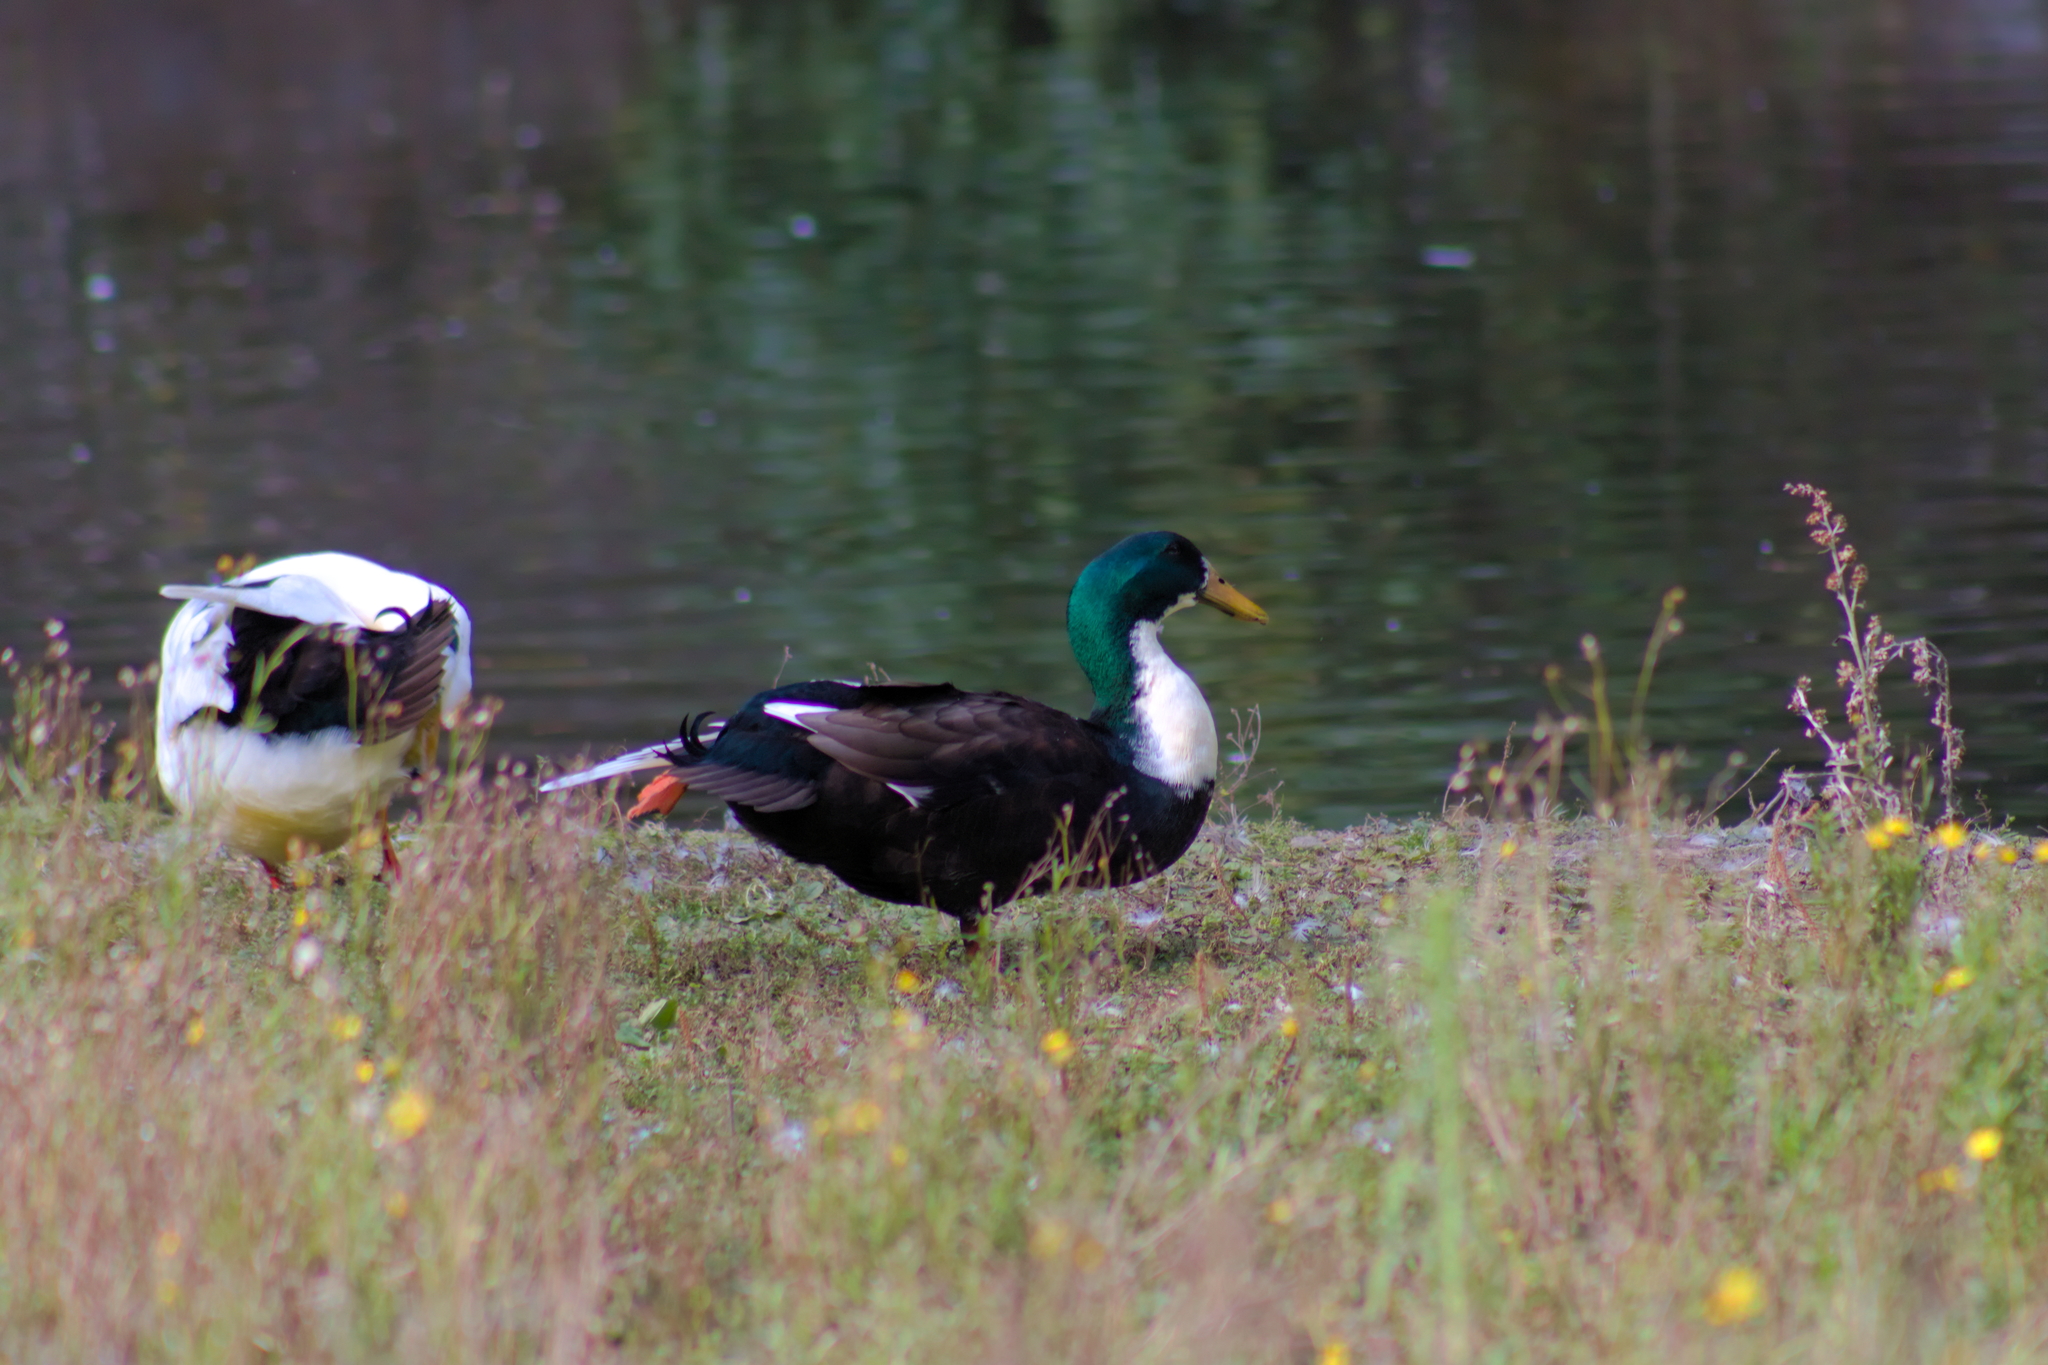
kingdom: Animalia
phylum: Chordata
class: Aves
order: Anseriformes
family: Anatidae
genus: Anas
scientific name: Anas platyrhynchos
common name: Mallard
